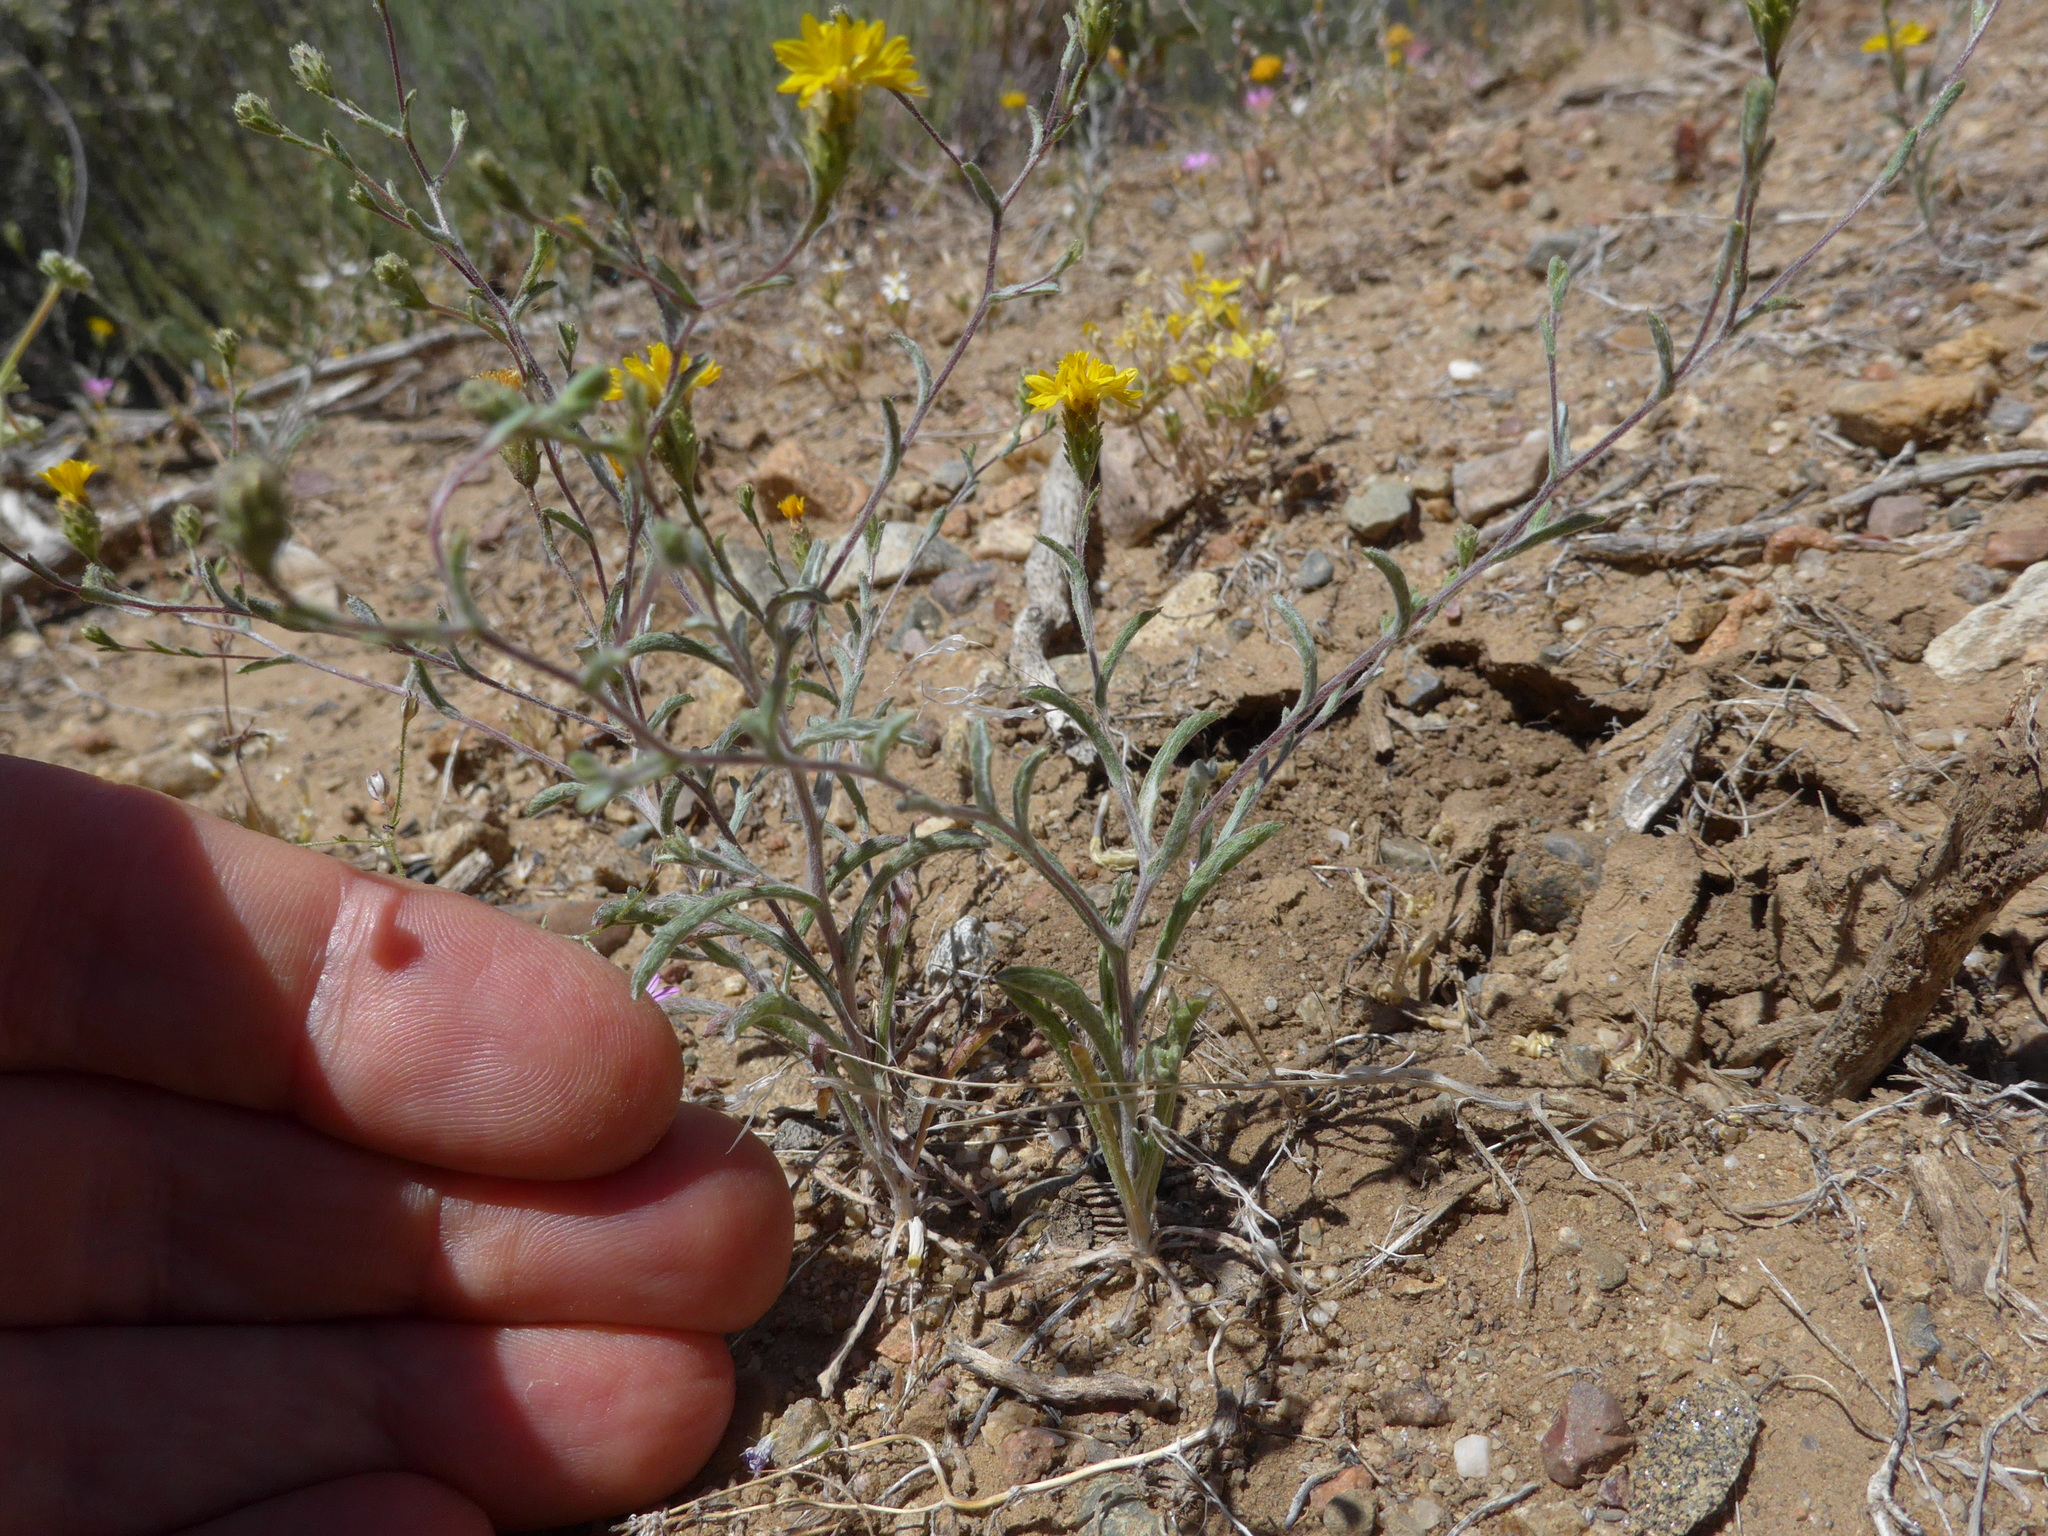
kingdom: Plantae
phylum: Tracheophyta
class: Magnoliopsida
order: Asterales
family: Asteraceae
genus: Lessingia
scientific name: Lessingia glandulifera
